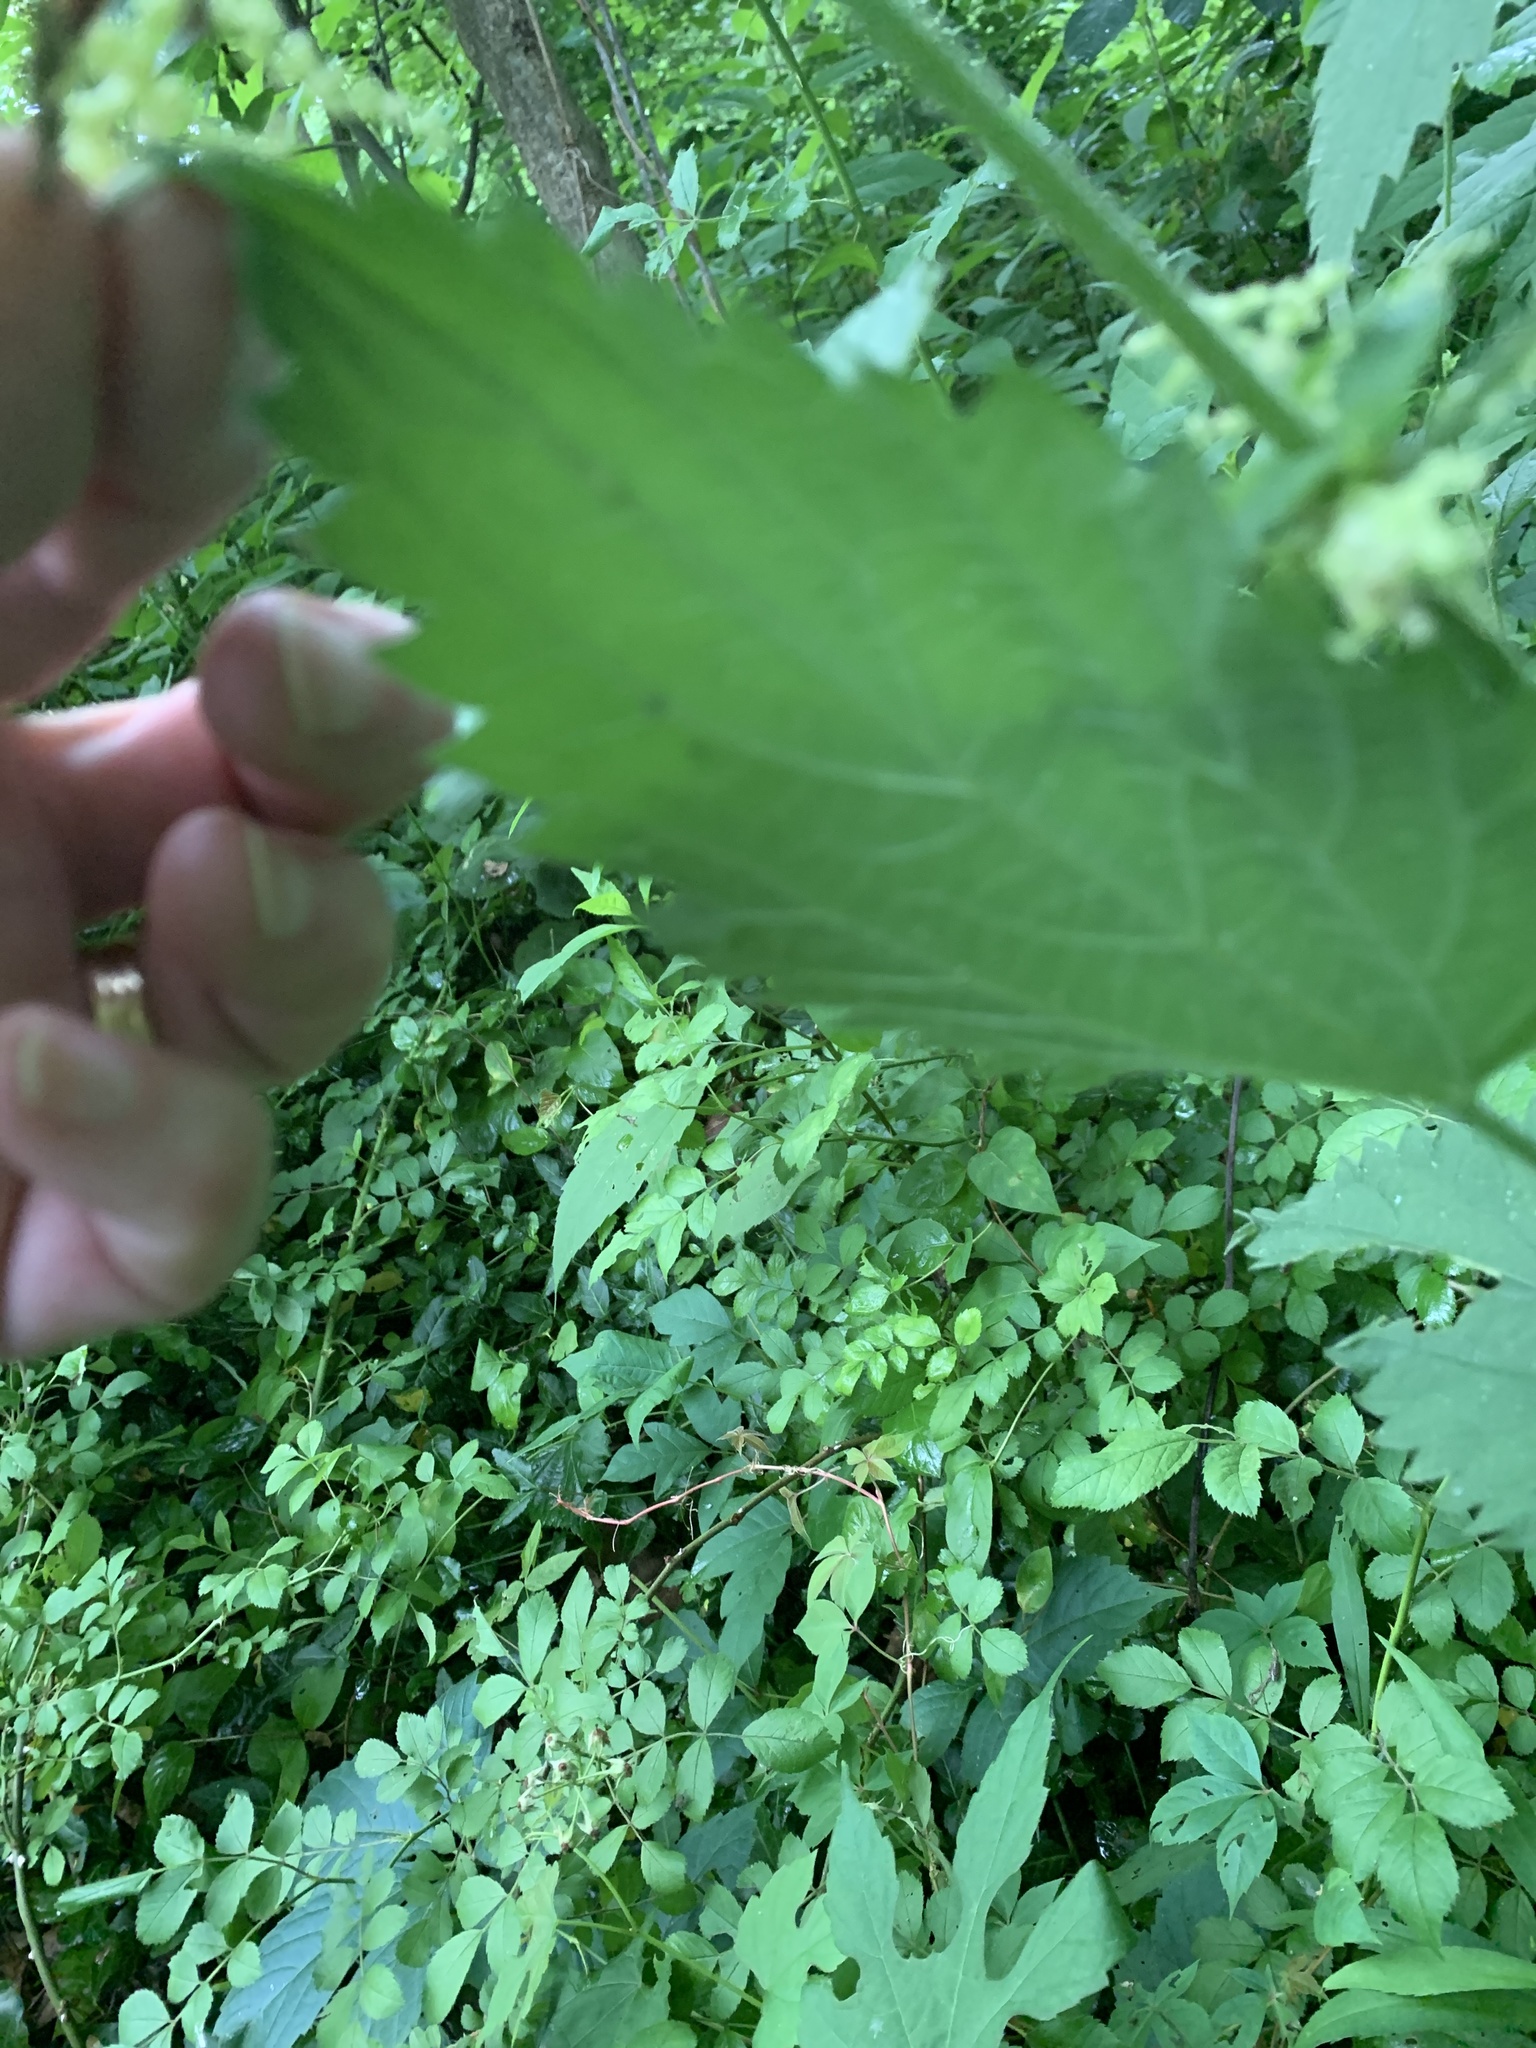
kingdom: Plantae
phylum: Tracheophyta
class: Magnoliopsida
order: Rosales
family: Urticaceae
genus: Urtica
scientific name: Urtica dioica
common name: Common nettle
